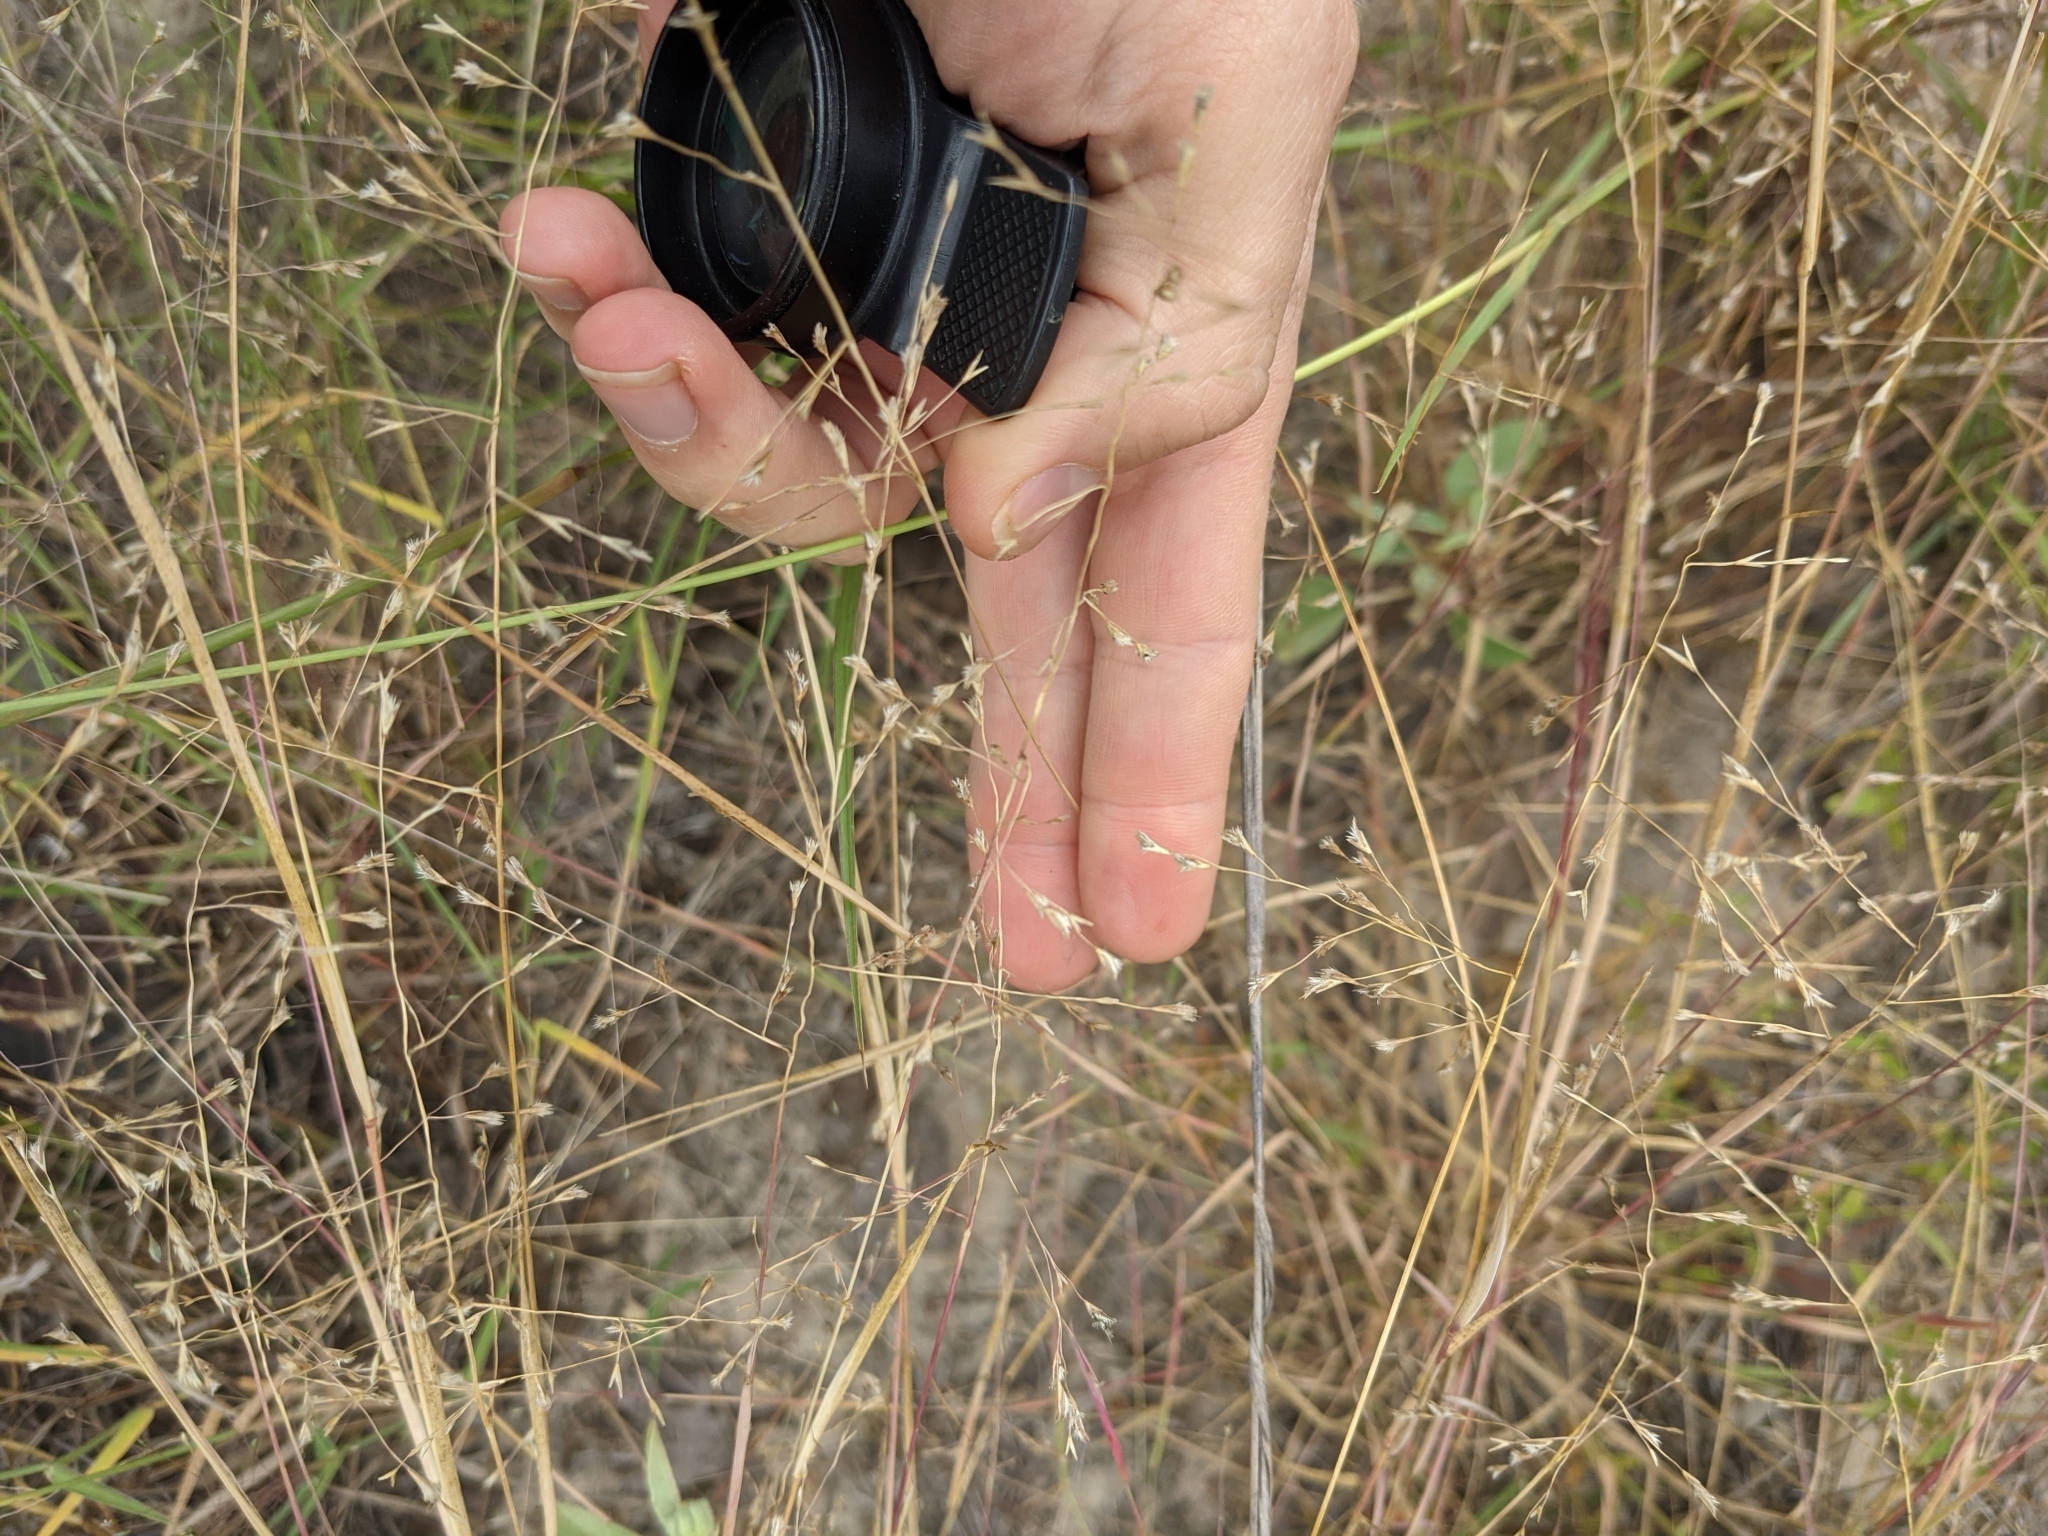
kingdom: Plantae
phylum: Tracheophyta
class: Liliopsida
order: Poales
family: Poaceae
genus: Triplasis
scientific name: Triplasis purpurea
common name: Purple sand grass
